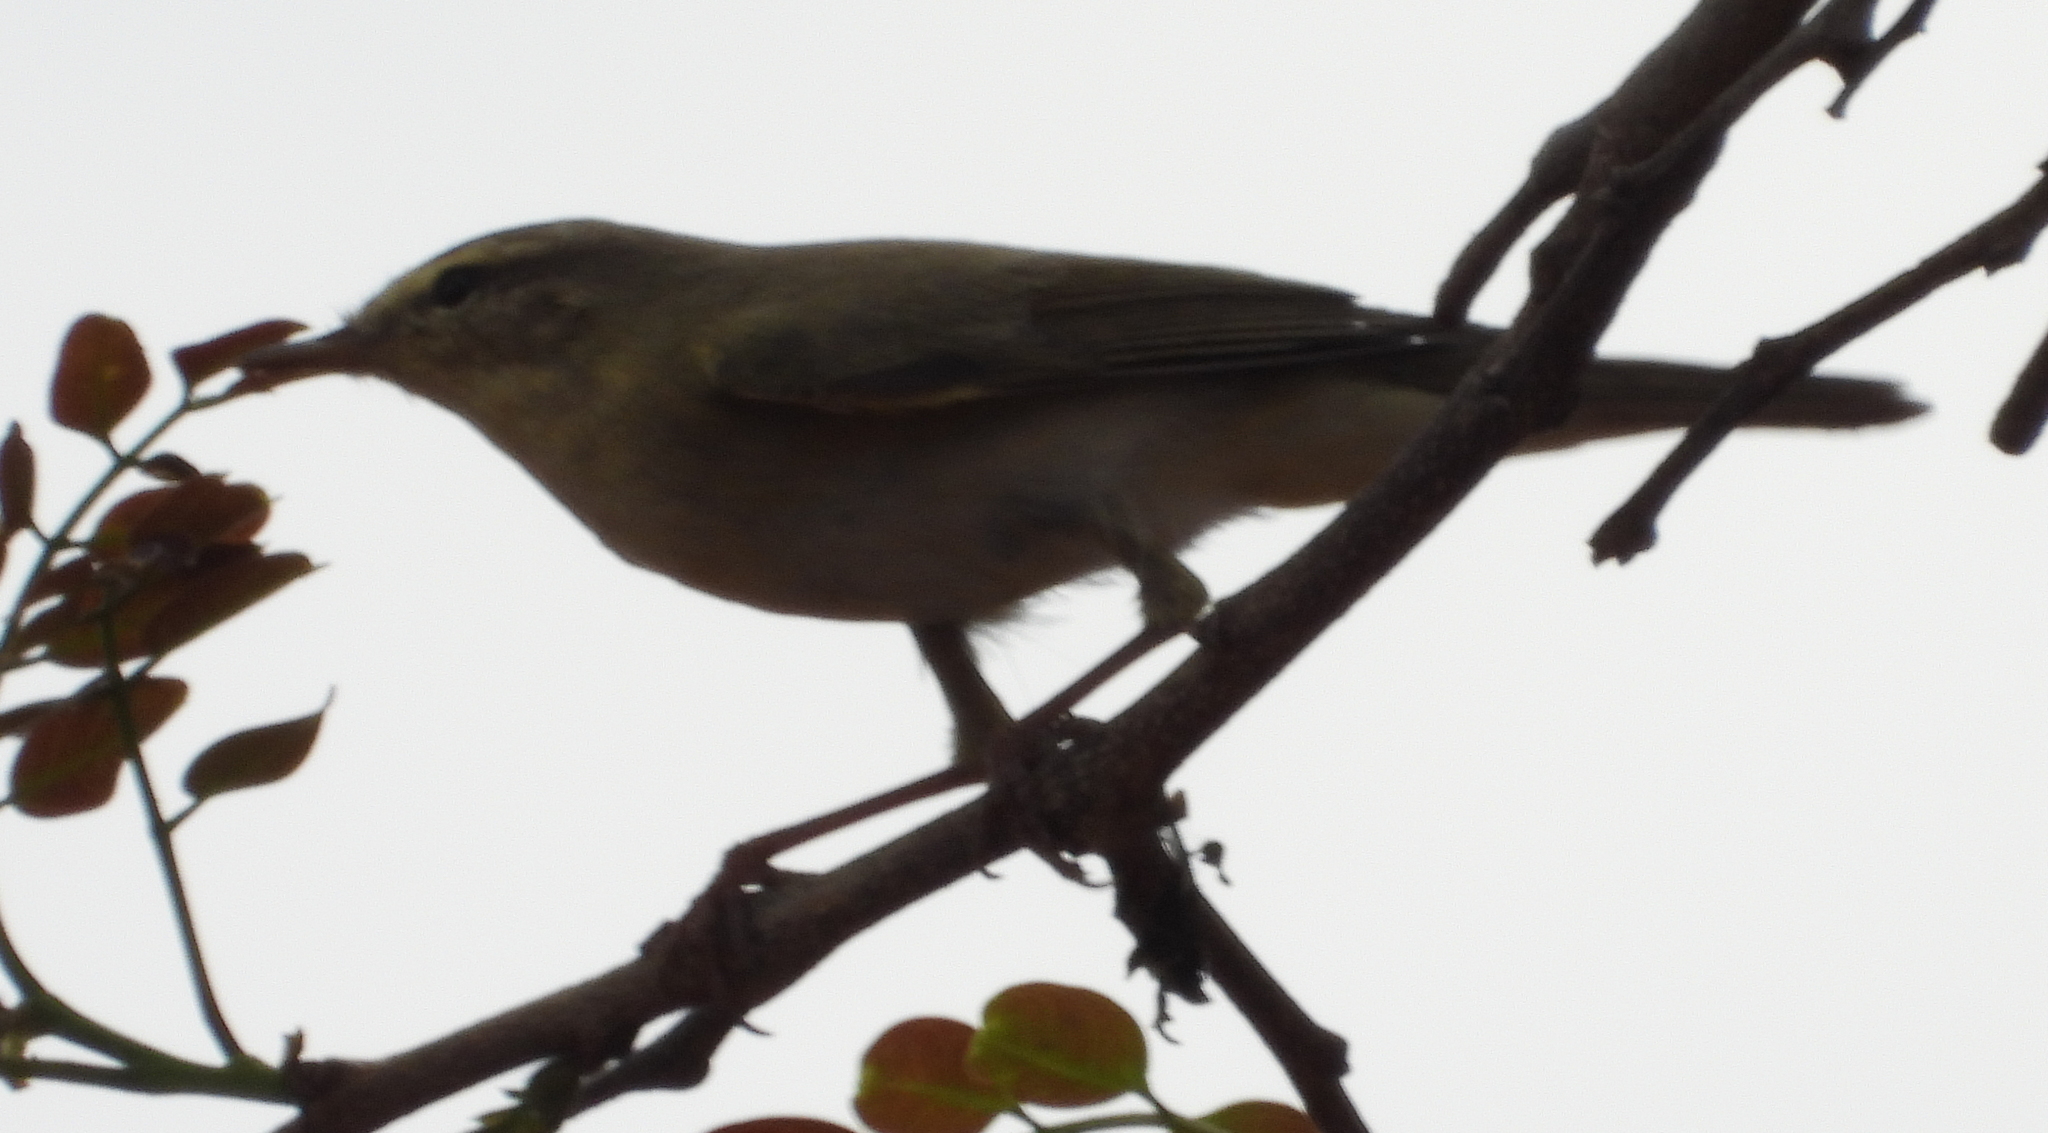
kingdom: Animalia
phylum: Chordata
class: Aves
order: Passeriformes
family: Phylloscopidae
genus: Phylloscopus
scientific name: Phylloscopus trochilus
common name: Willow warbler
